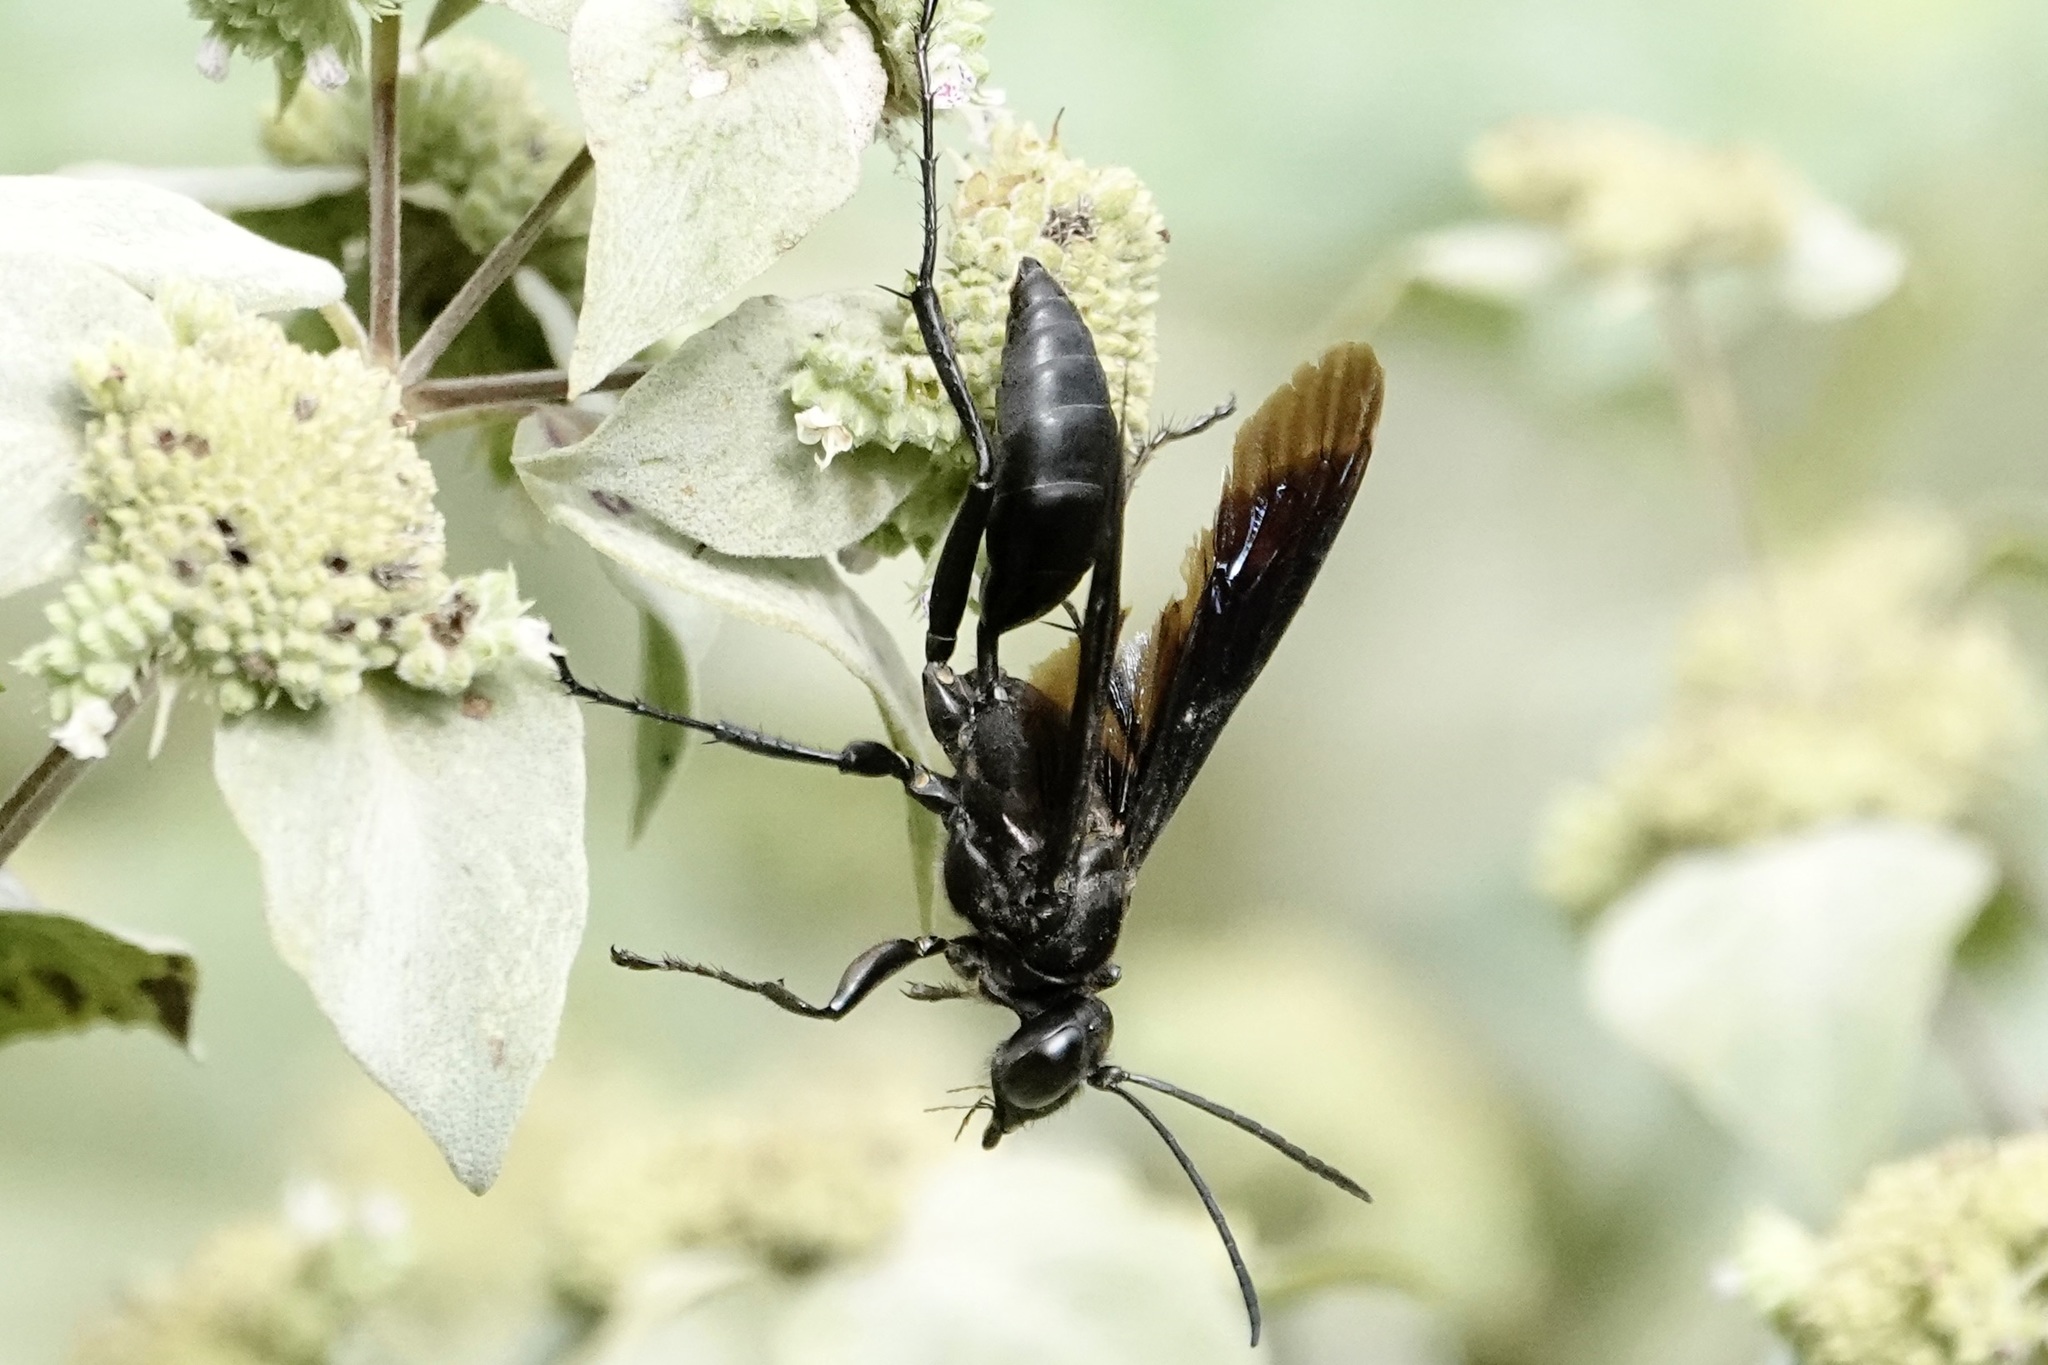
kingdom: Animalia
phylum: Arthropoda
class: Insecta
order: Hymenoptera
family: Sphecidae
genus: Sphex
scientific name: Sphex pensylvanicus
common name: Great black digger wasp
